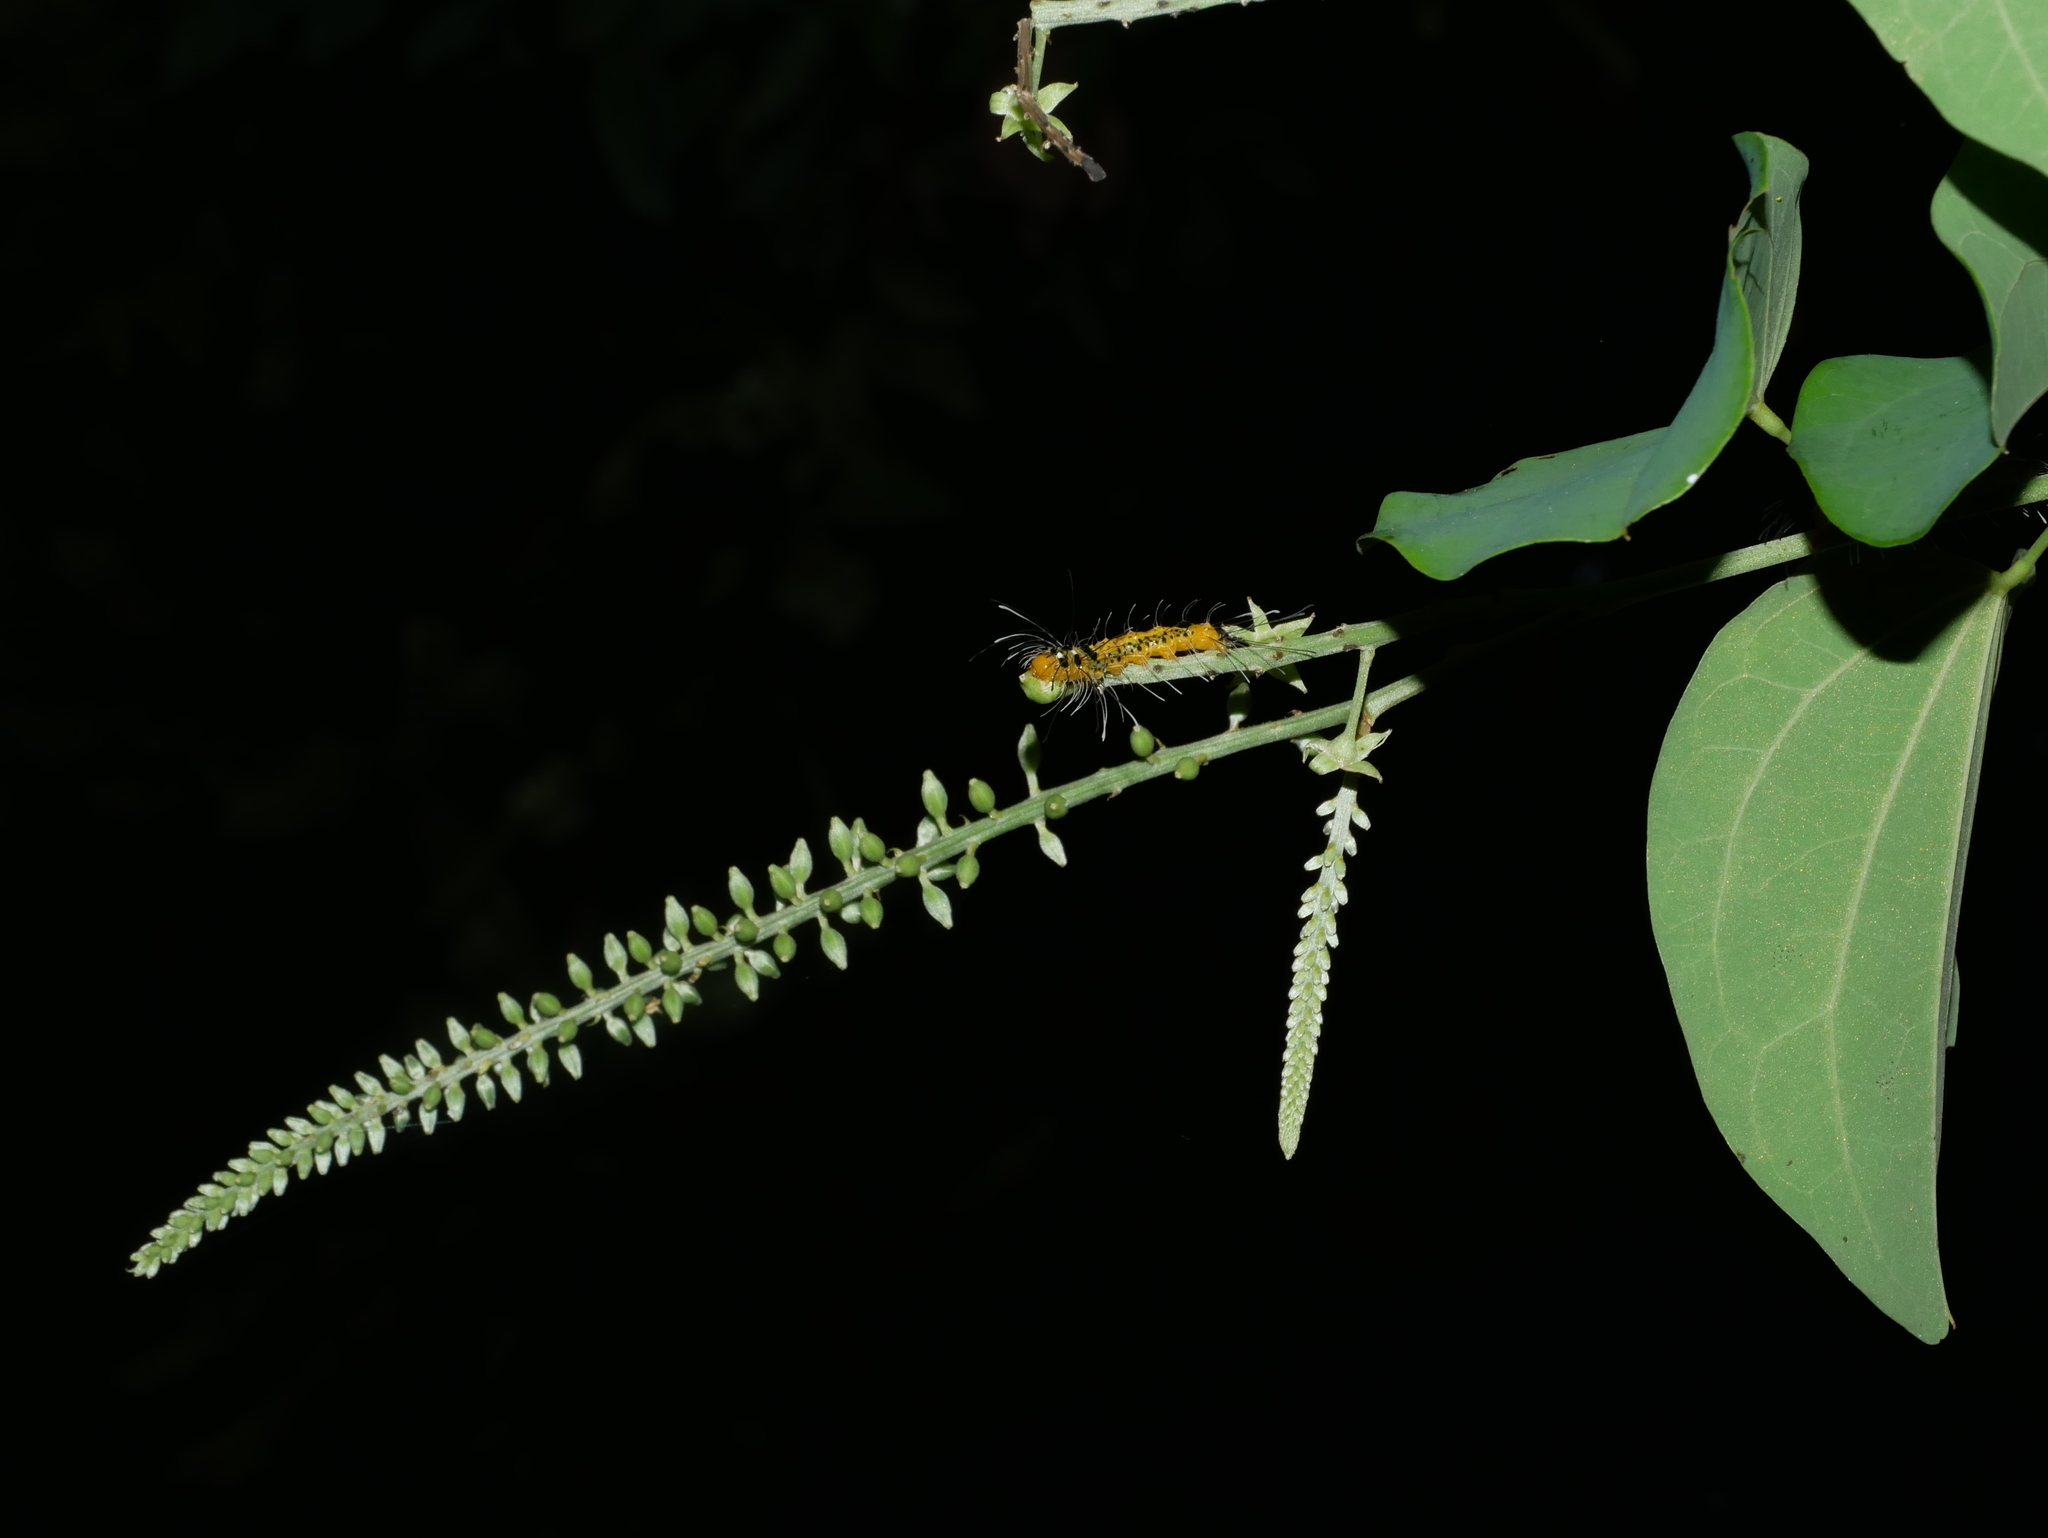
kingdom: Plantae
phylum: Tracheophyta
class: Magnoliopsida
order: Fabales
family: Fabaceae
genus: Phanera
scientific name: Phanera championii
